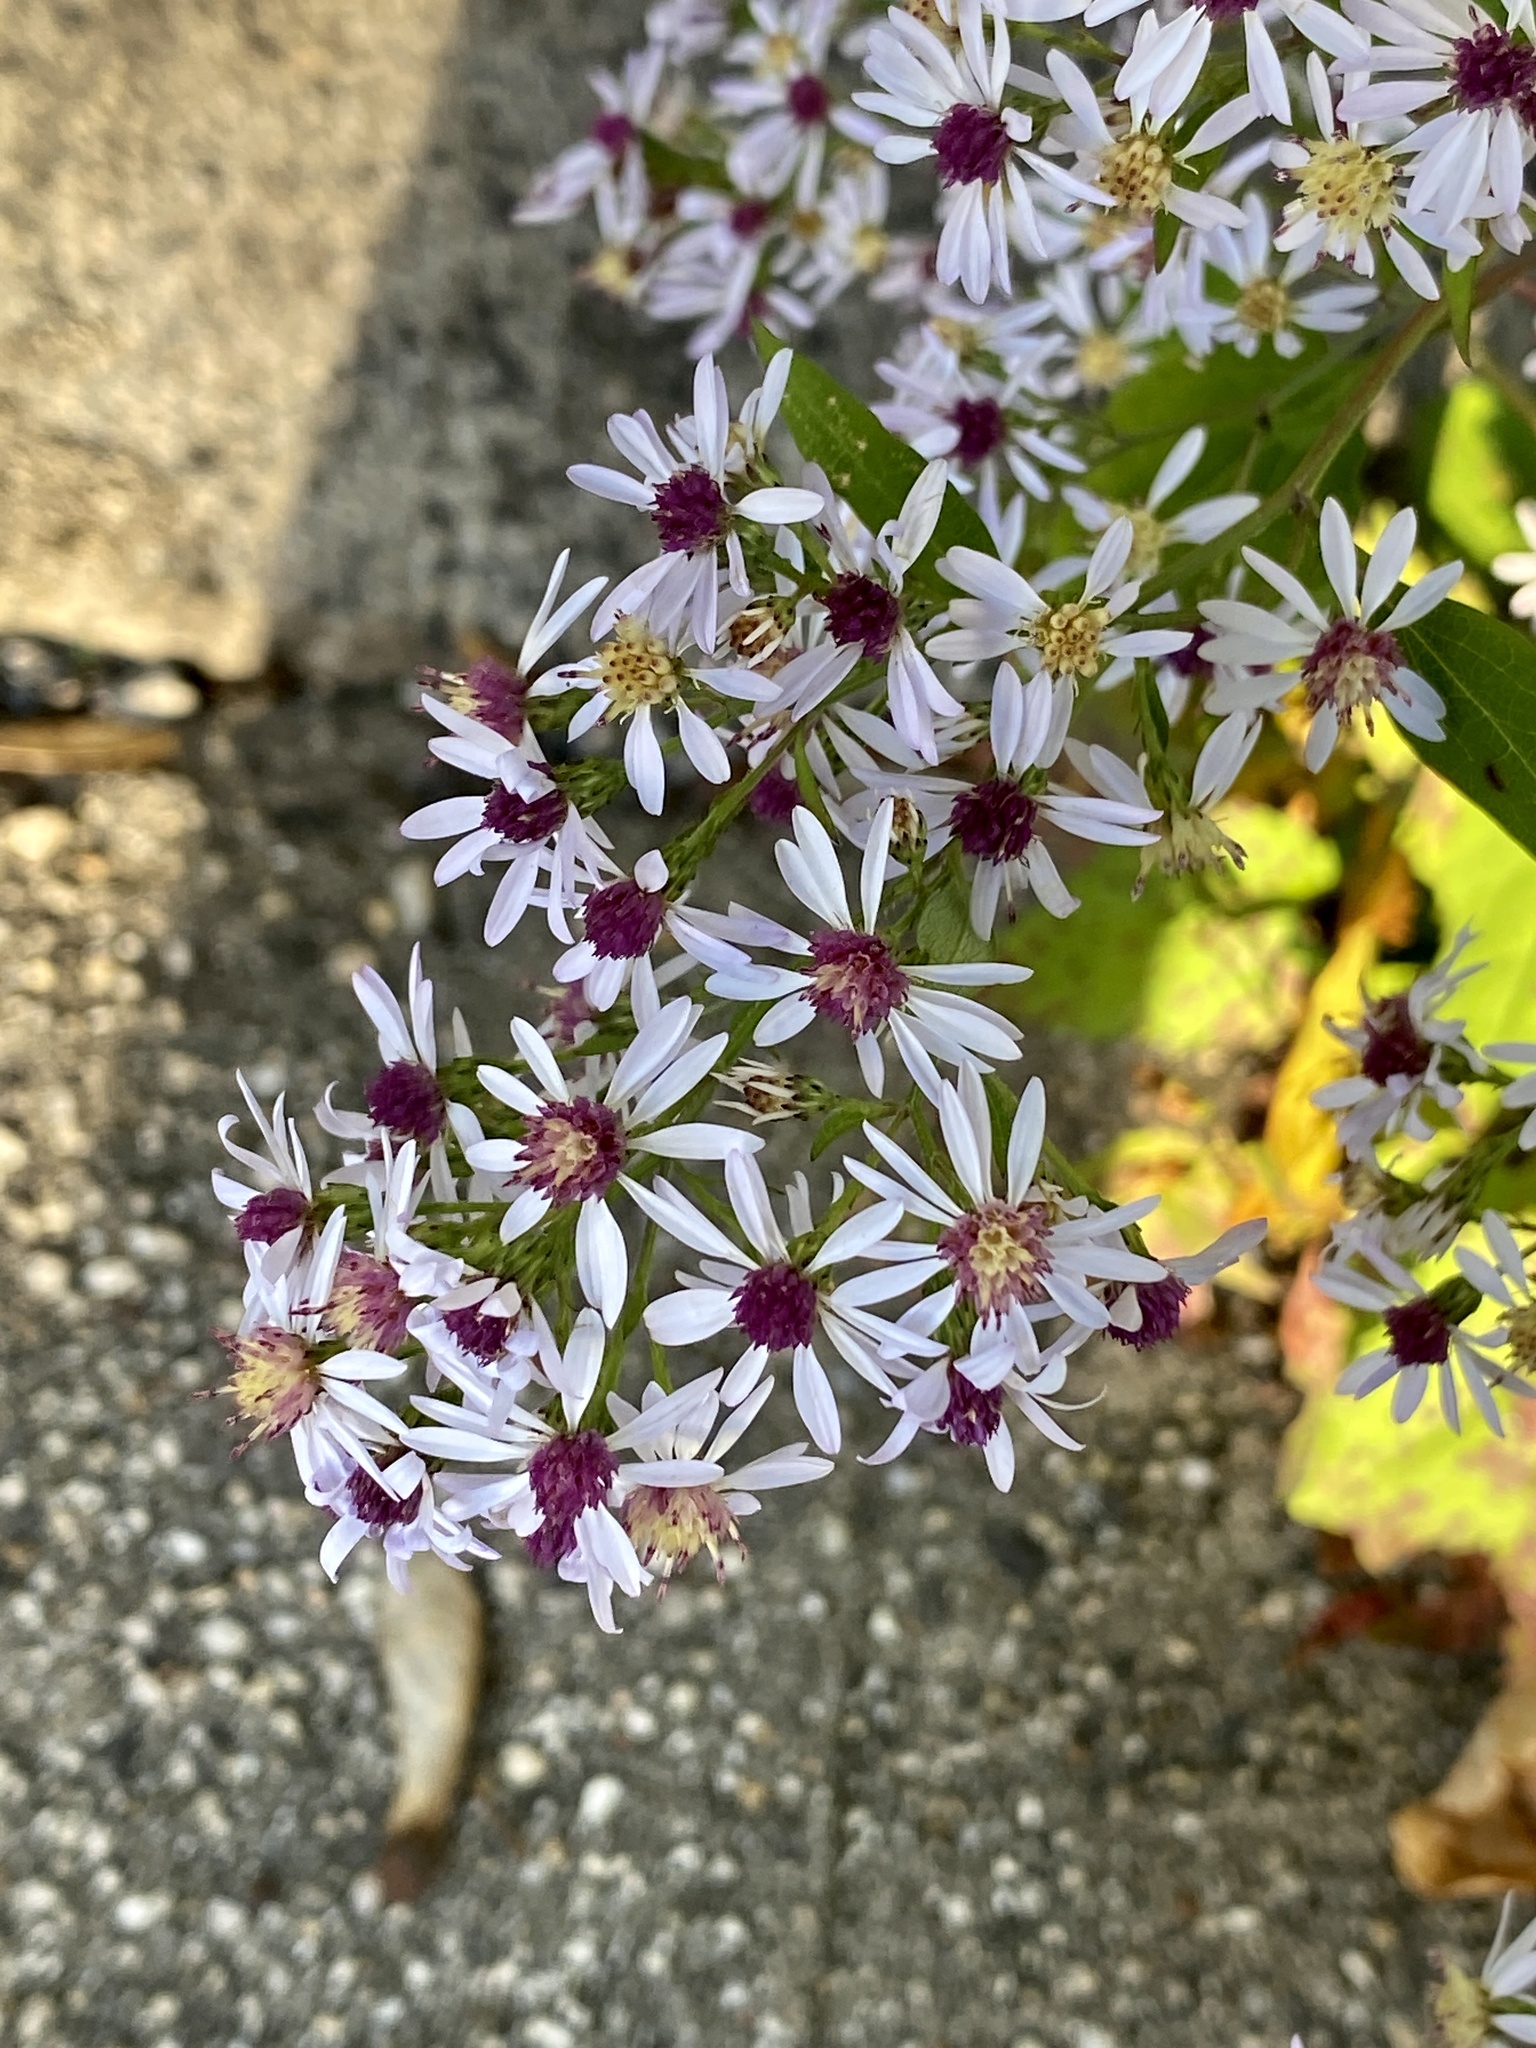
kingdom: Plantae
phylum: Tracheophyta
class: Magnoliopsida
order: Asterales
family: Asteraceae
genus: Symphyotrichum
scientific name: Symphyotrichum cordifolium
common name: Beeweed
